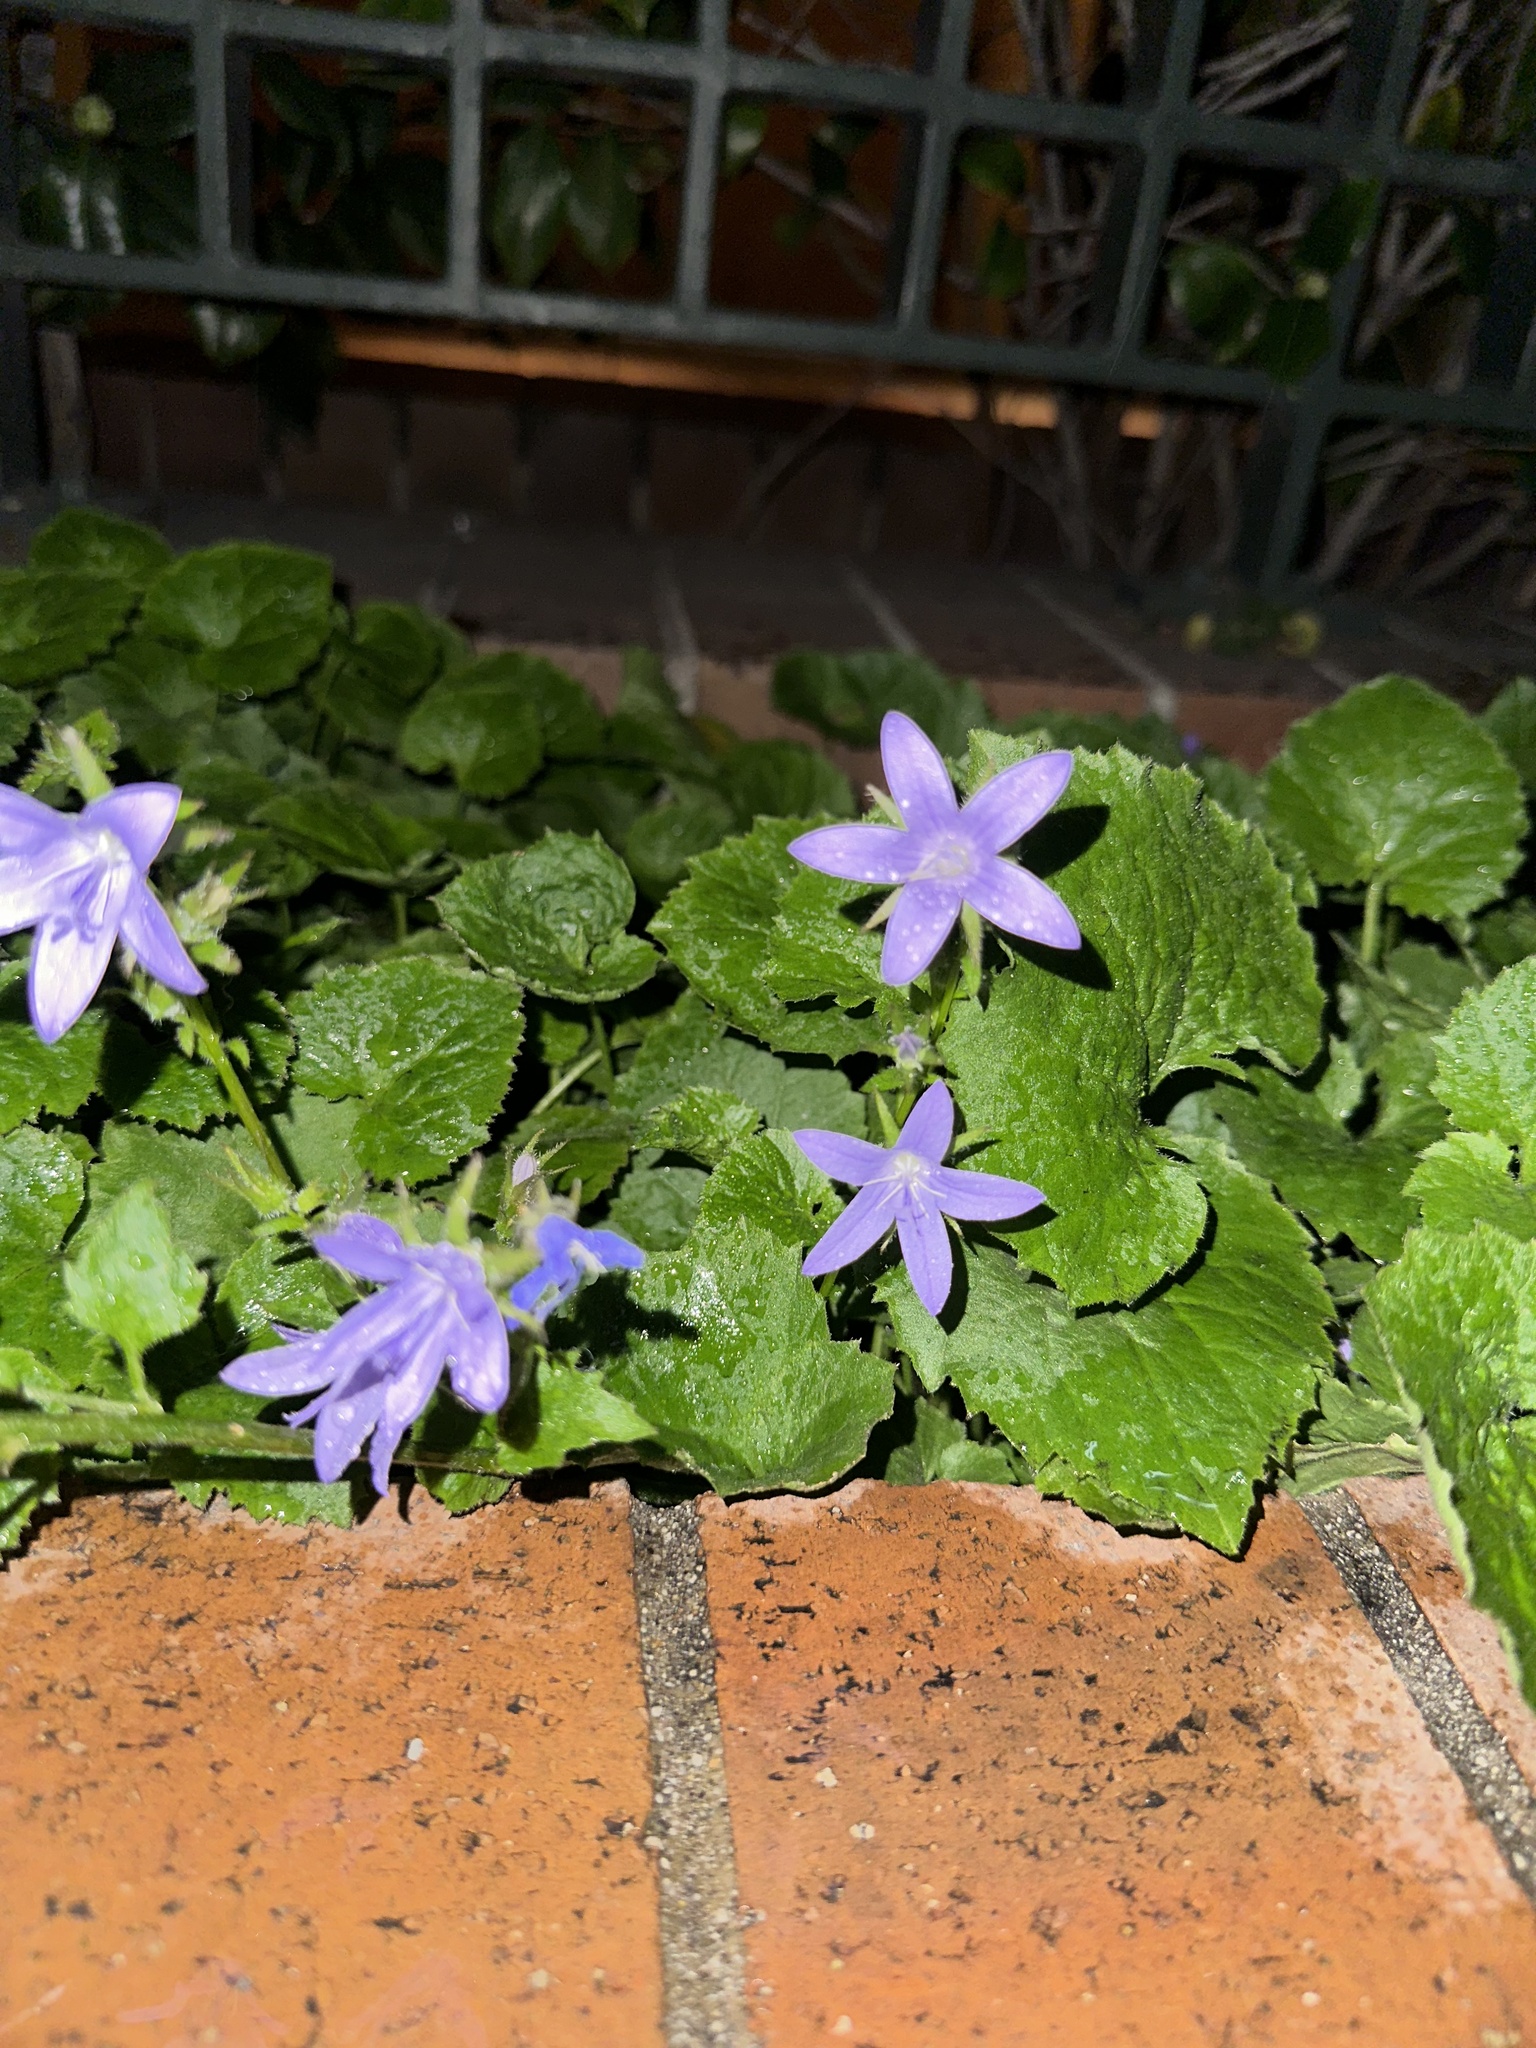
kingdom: Plantae
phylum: Tracheophyta
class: Magnoliopsida
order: Asterales
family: Campanulaceae
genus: Campanula
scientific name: Campanula poscharskyana
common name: Trailing bellflower
